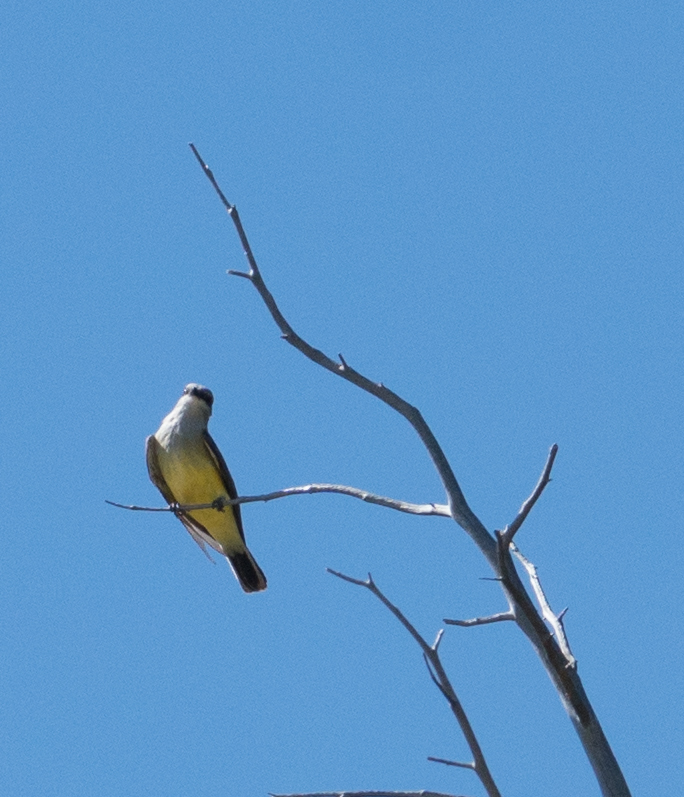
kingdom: Animalia
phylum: Chordata
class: Aves
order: Passeriformes
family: Tyrannidae
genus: Tyrannus
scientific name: Tyrannus verticalis
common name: Western kingbird
